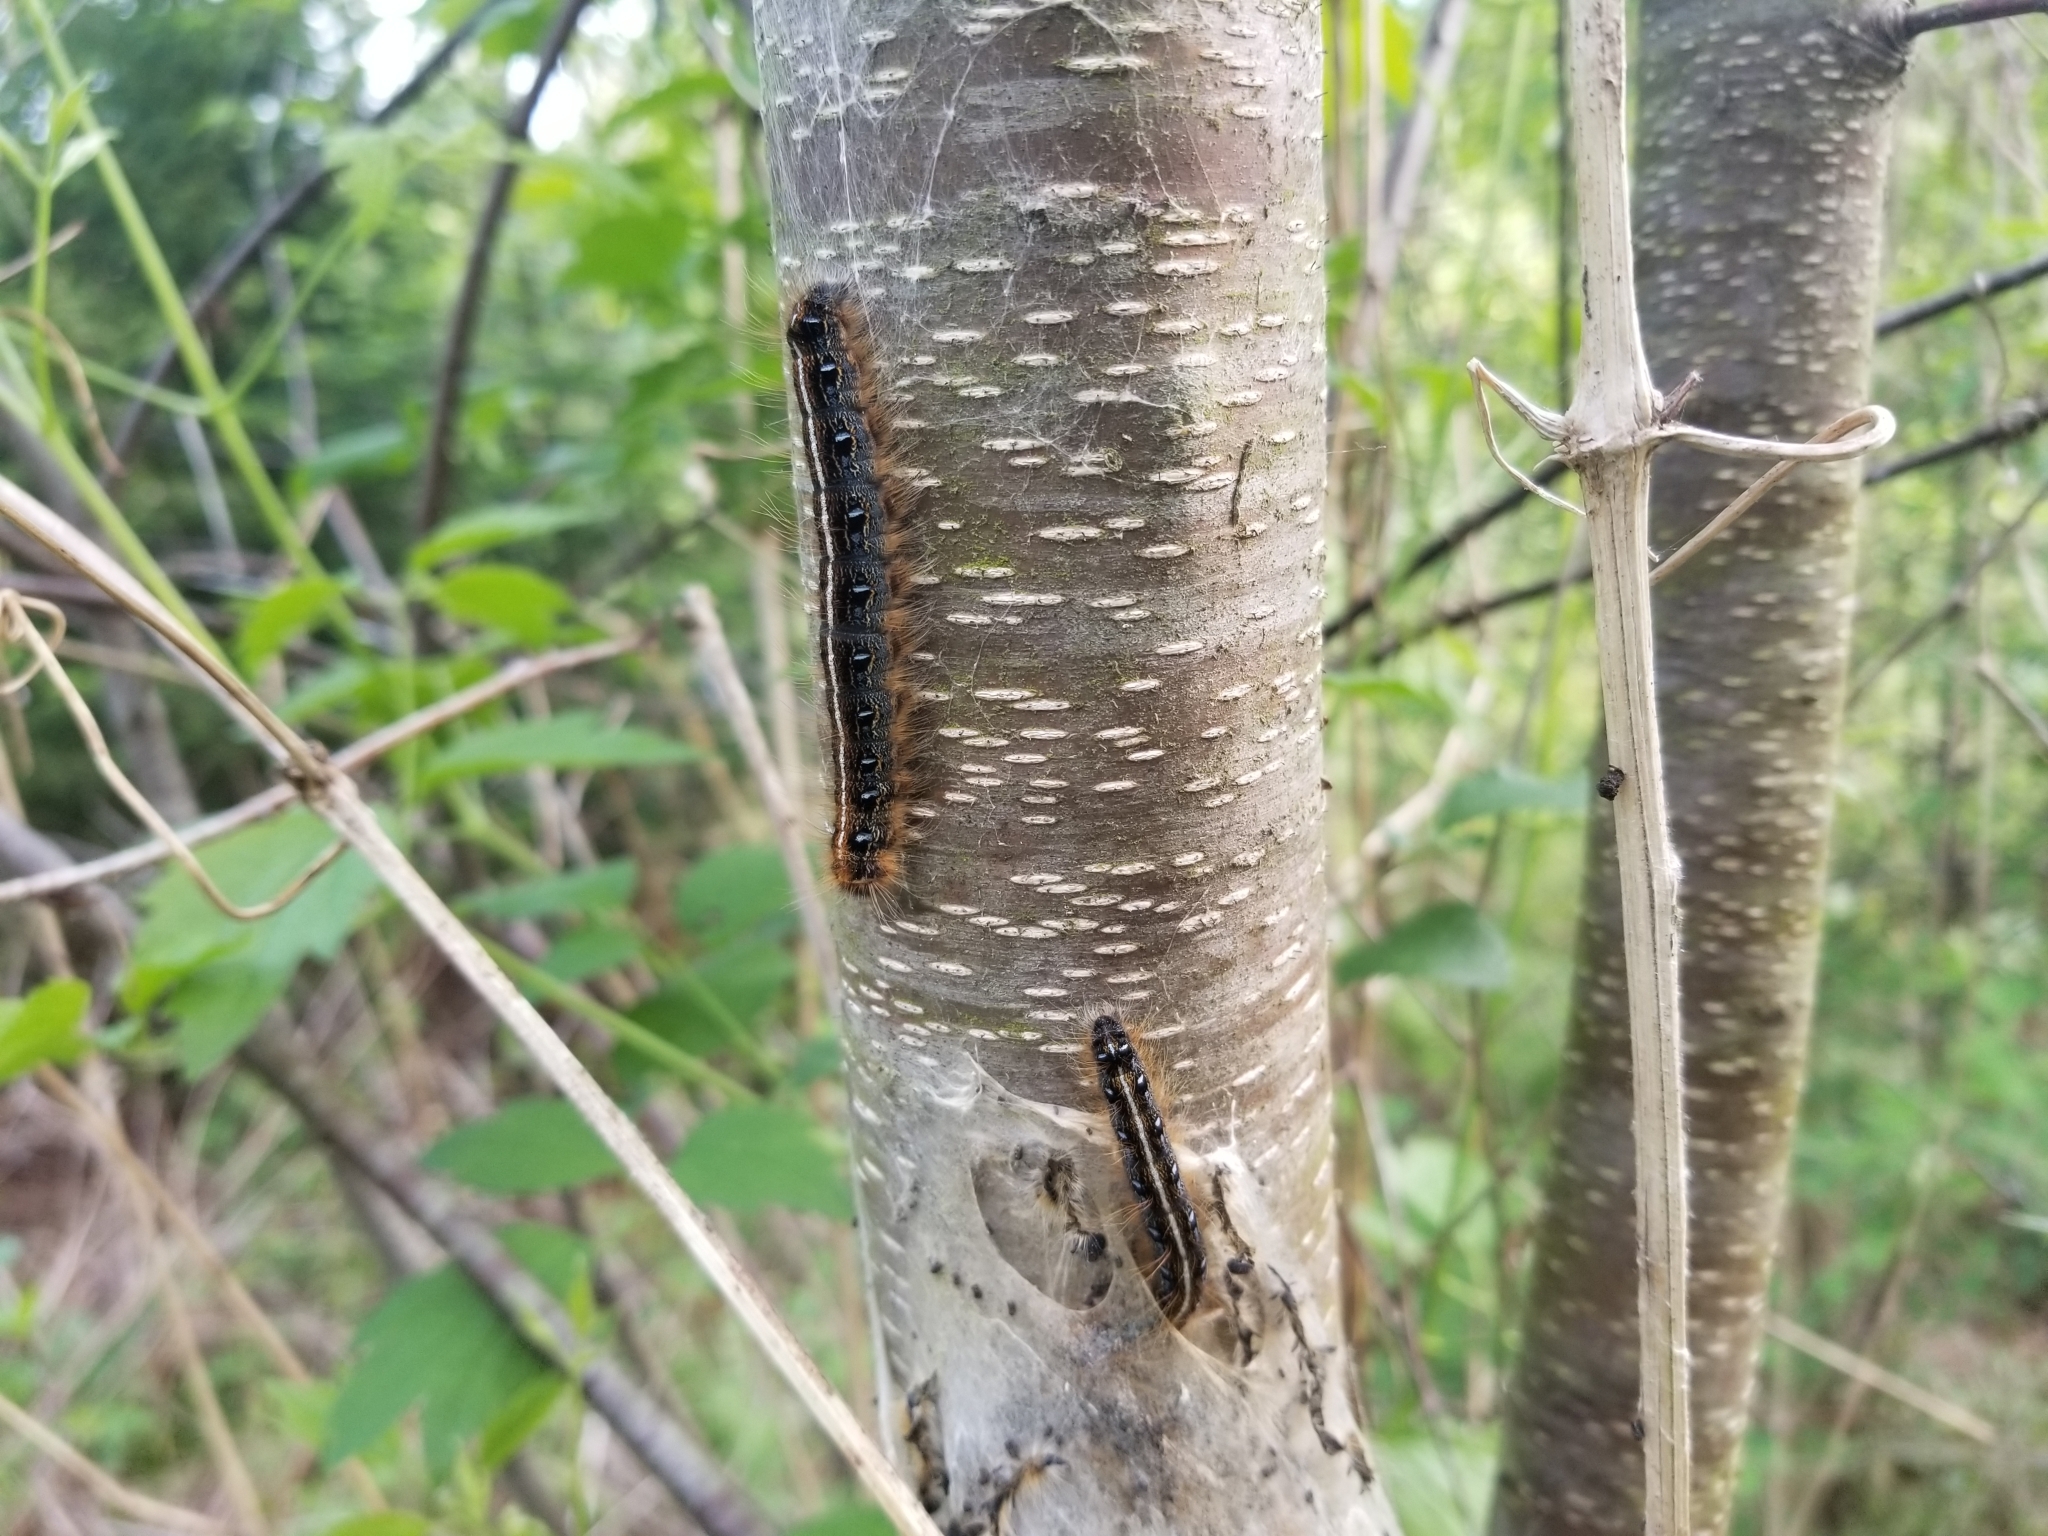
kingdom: Animalia
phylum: Arthropoda
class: Insecta
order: Lepidoptera
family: Lasiocampidae
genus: Malacosoma
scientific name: Malacosoma americana
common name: Eastern tent caterpillar moth
